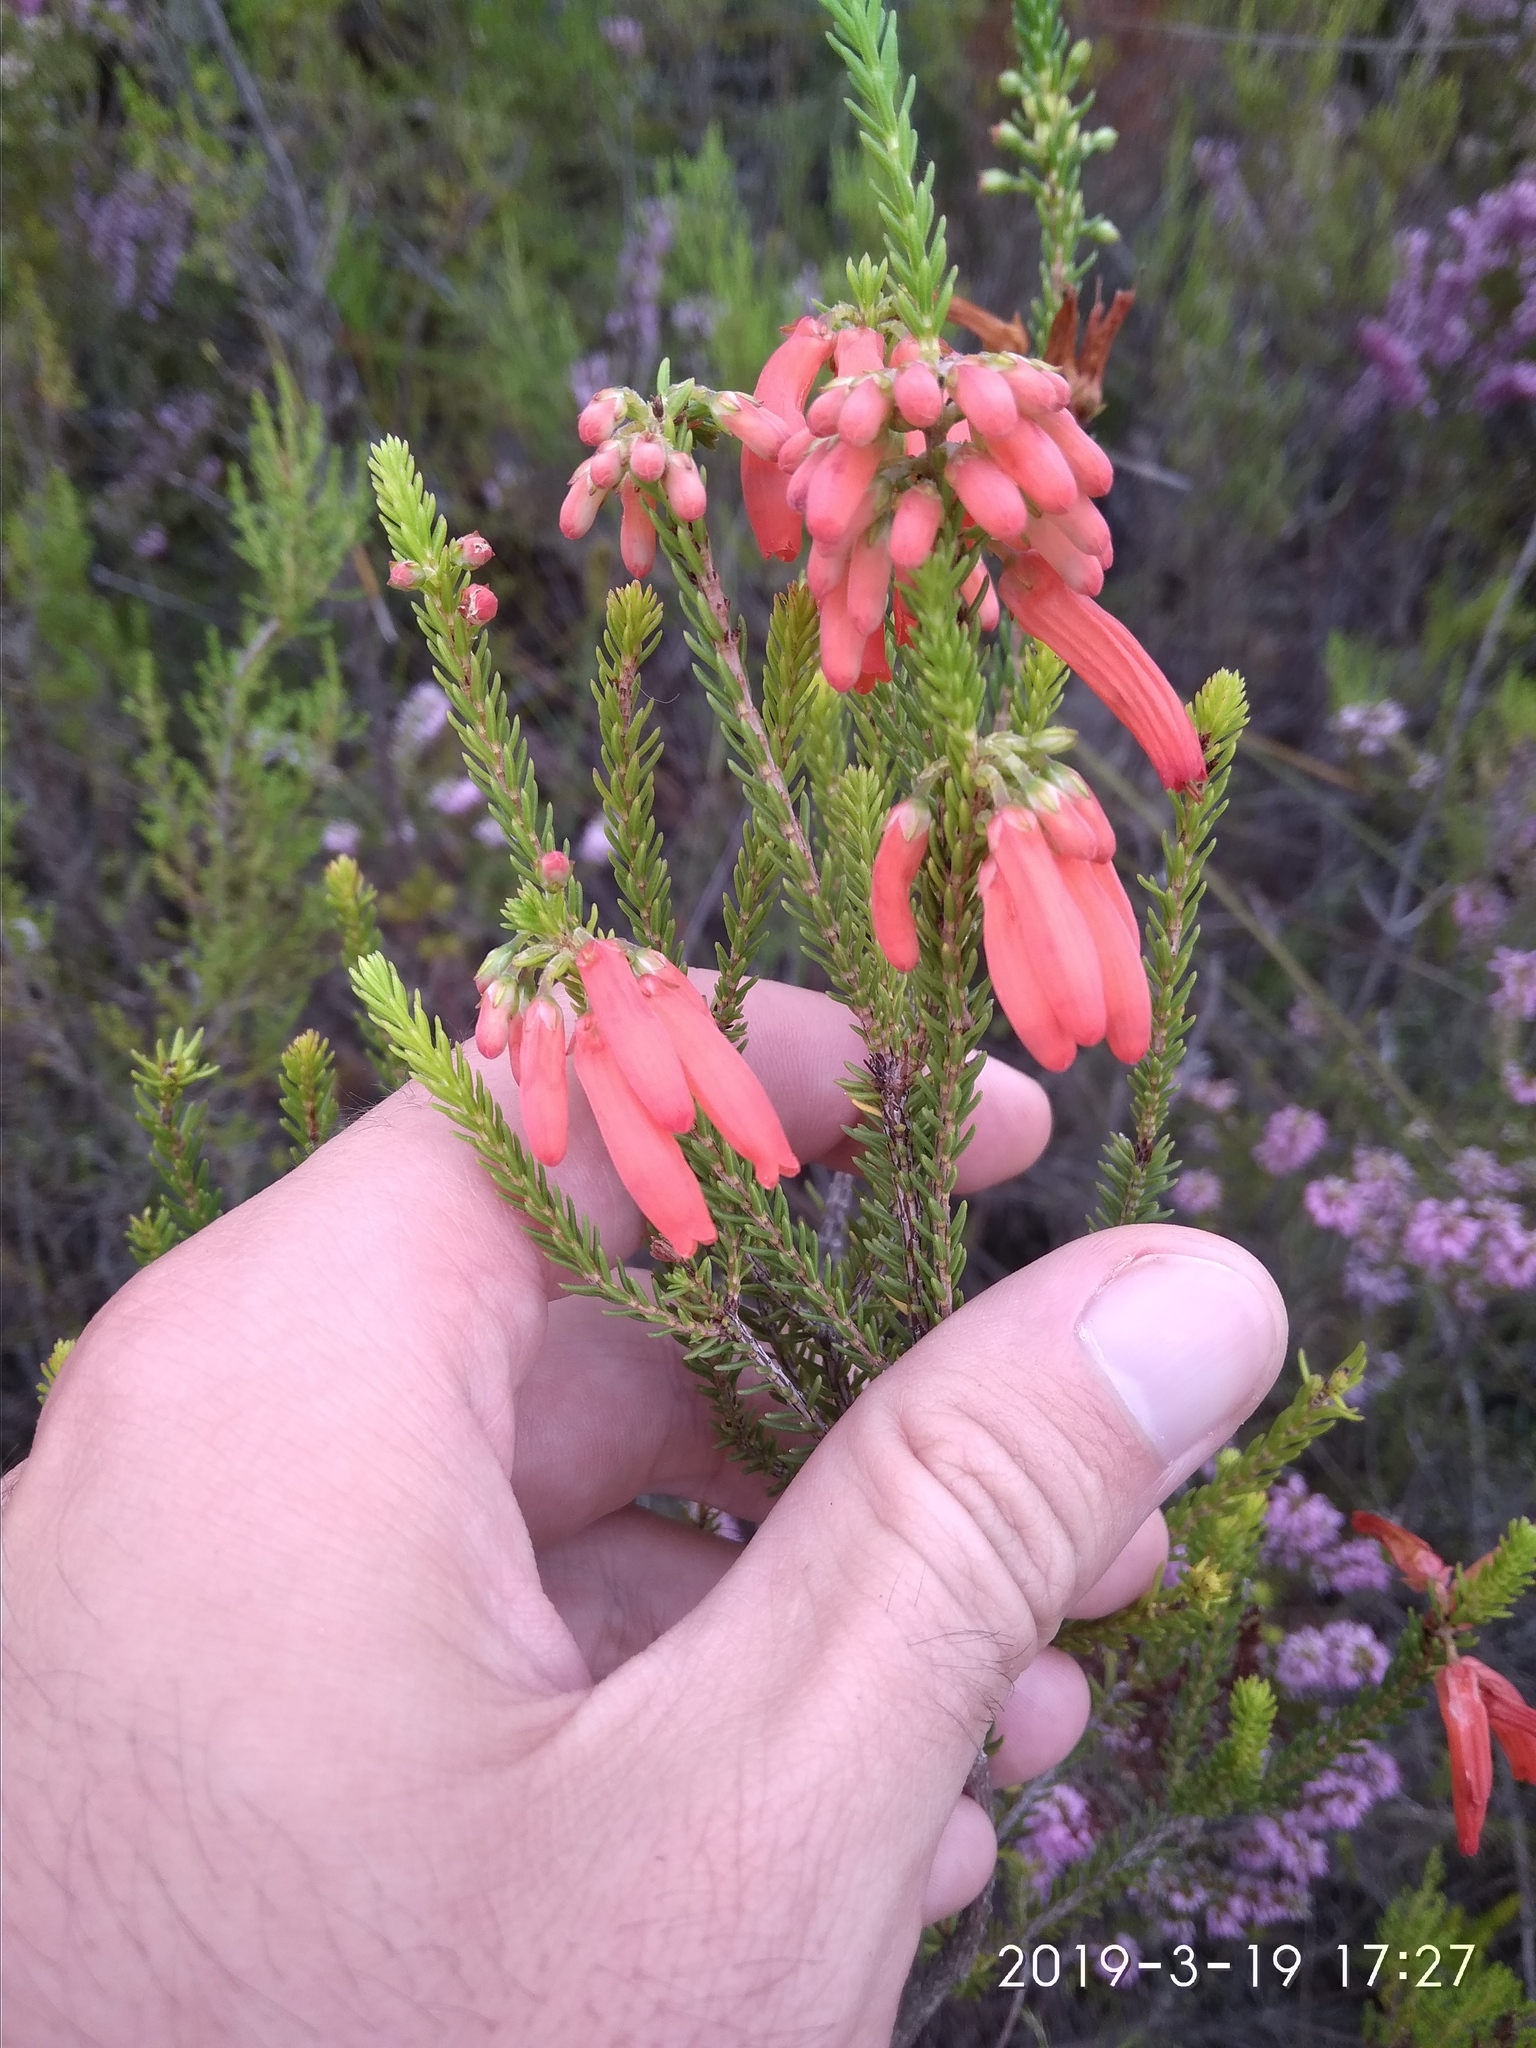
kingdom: Plantae
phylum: Tracheophyta
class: Magnoliopsida
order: Ericales
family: Ericaceae
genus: Erica
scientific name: Erica mammosa
